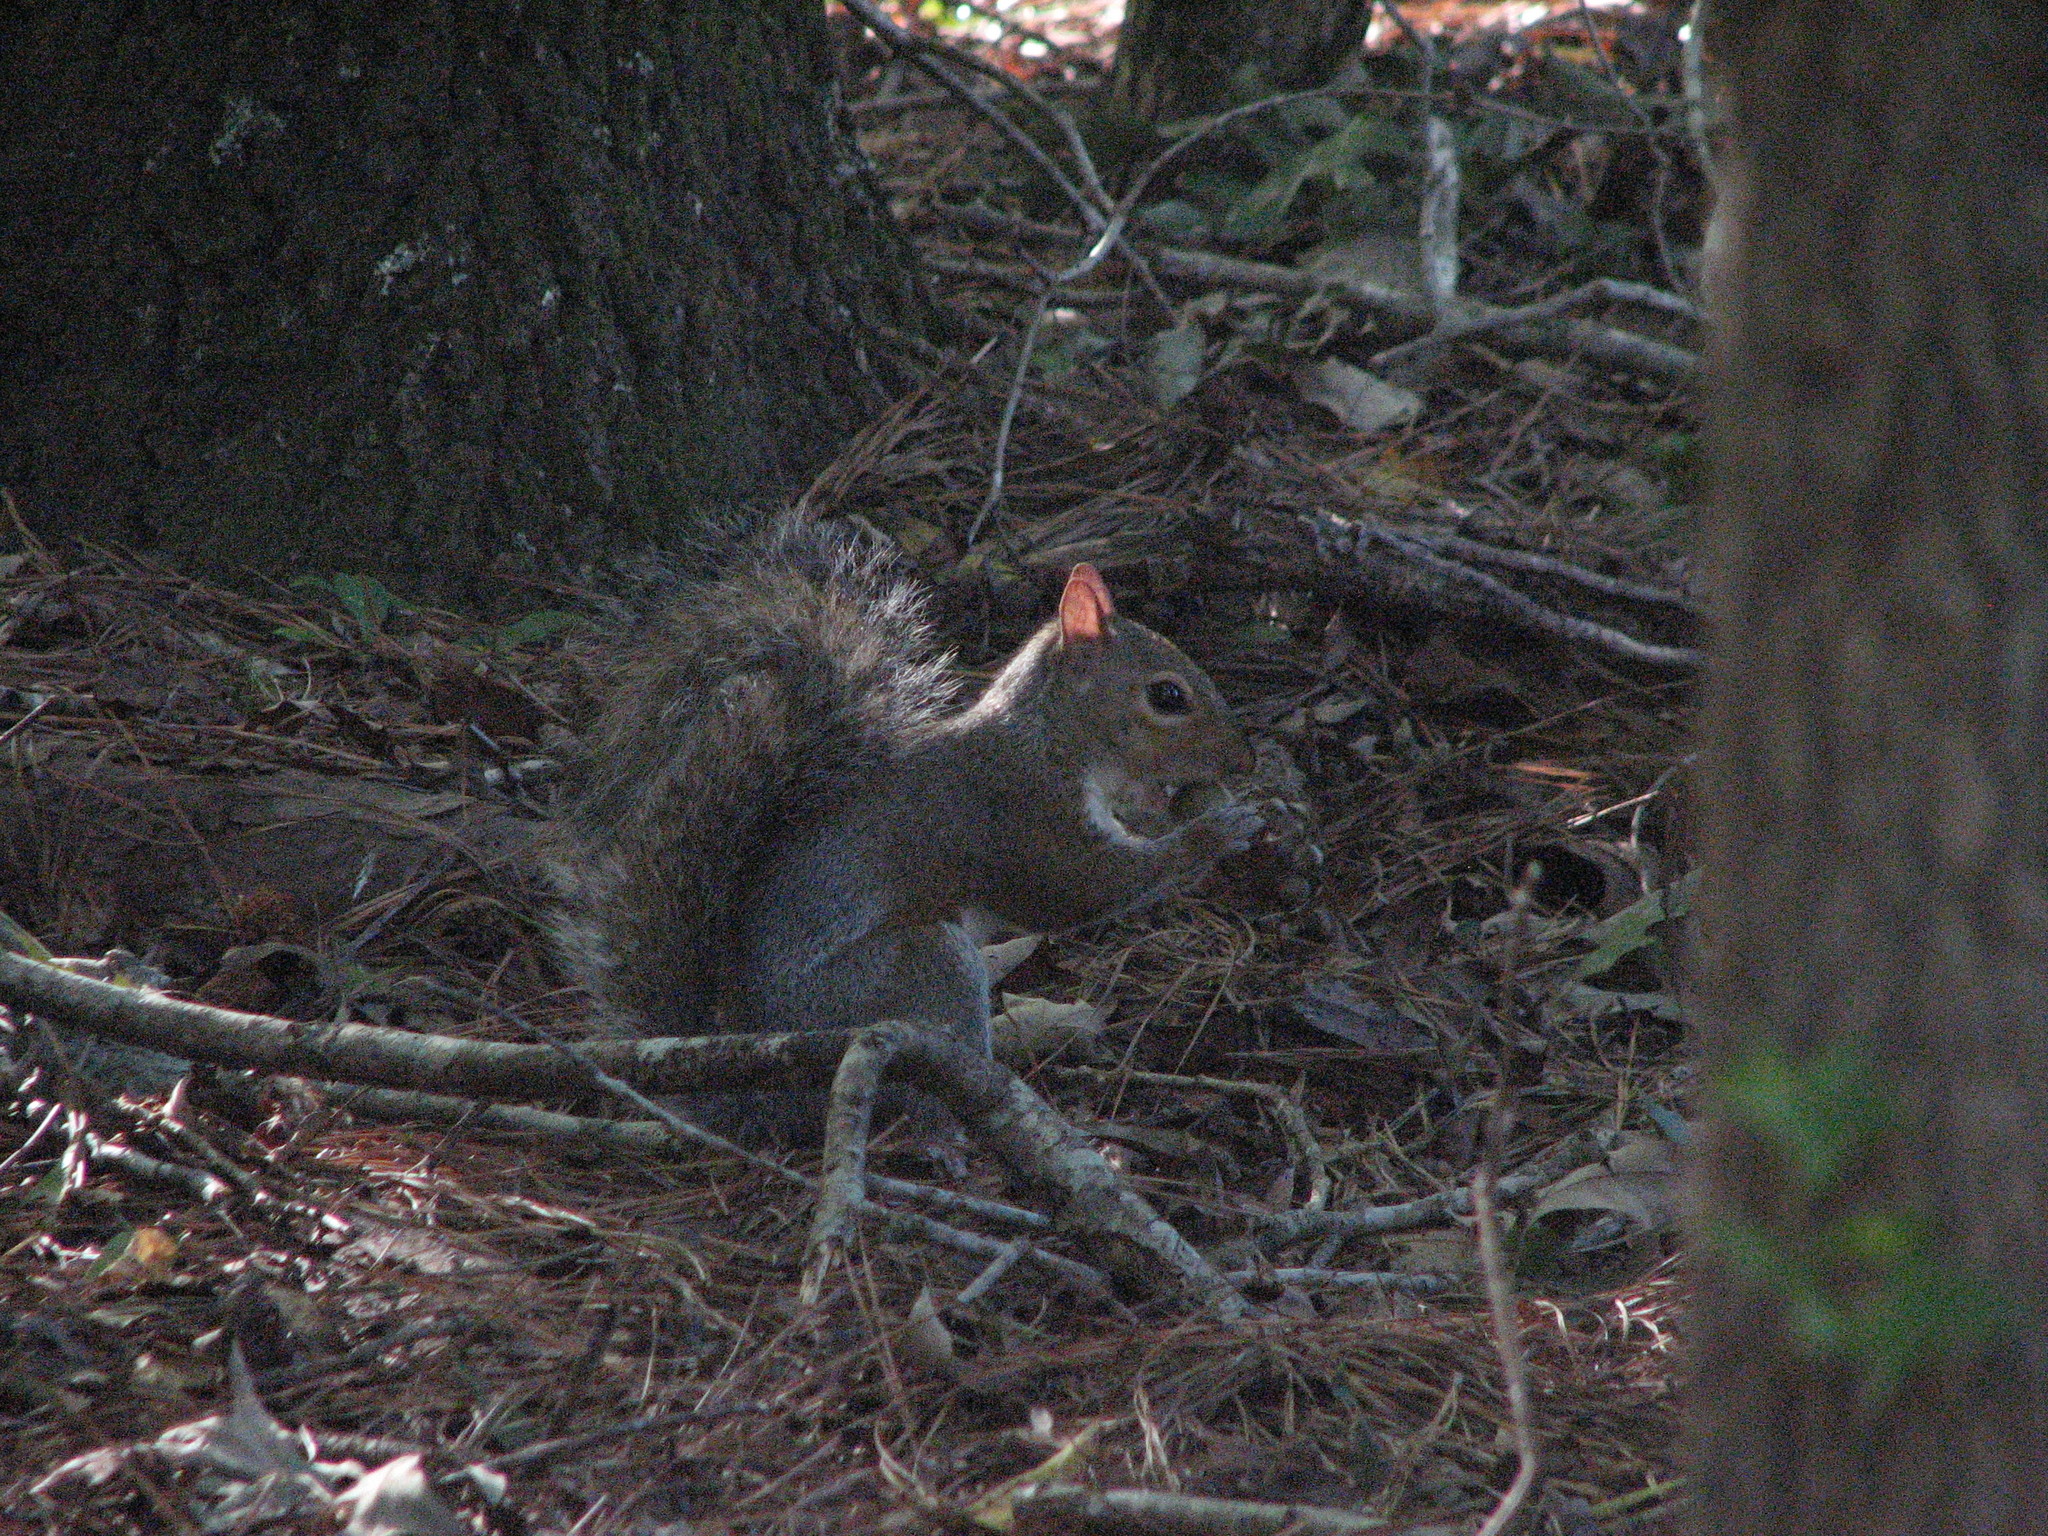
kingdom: Animalia
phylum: Chordata
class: Mammalia
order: Rodentia
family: Sciuridae
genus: Sciurus
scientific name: Sciurus carolinensis
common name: Eastern gray squirrel
